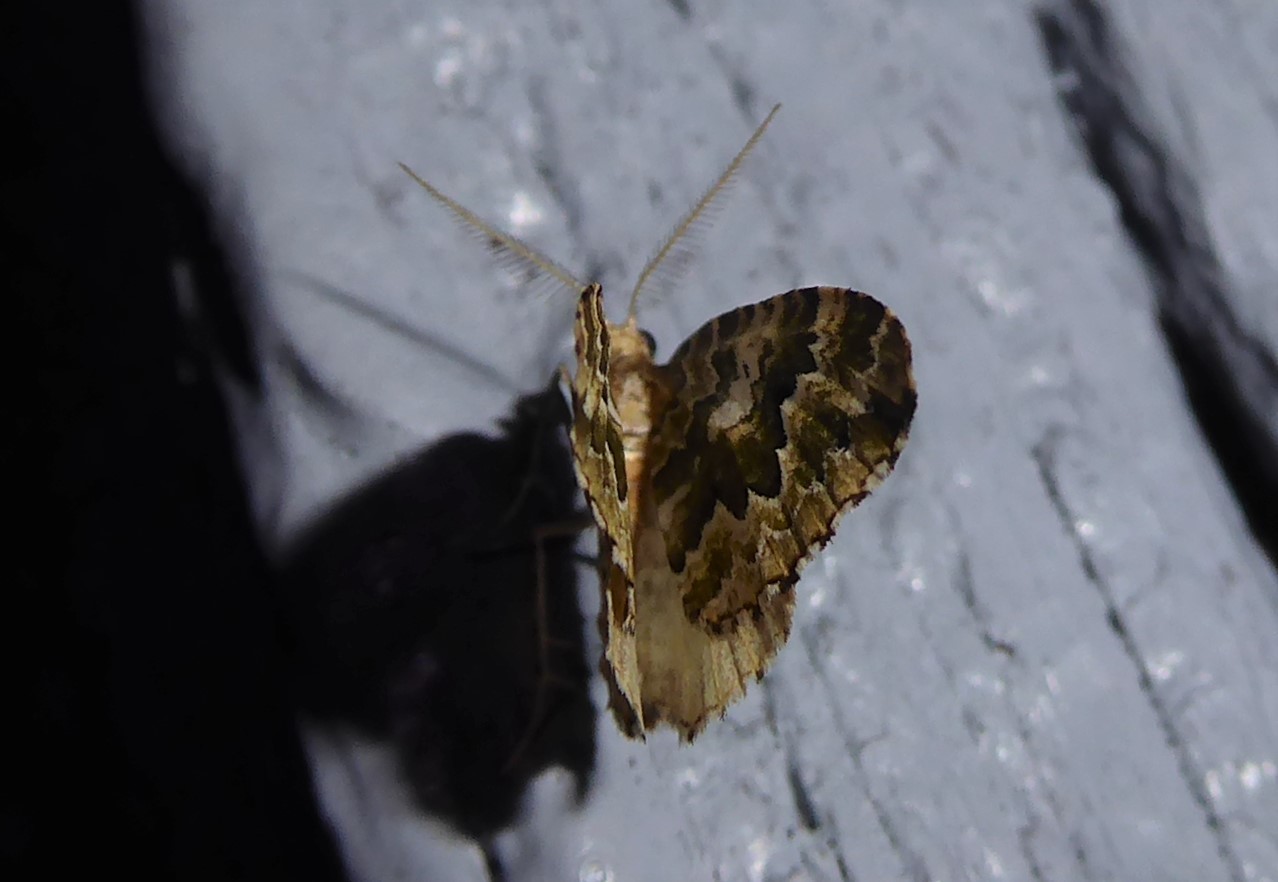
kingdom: Animalia
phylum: Arthropoda
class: Insecta
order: Lepidoptera
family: Geometridae
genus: Asaphodes
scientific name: Asaphodes beata
